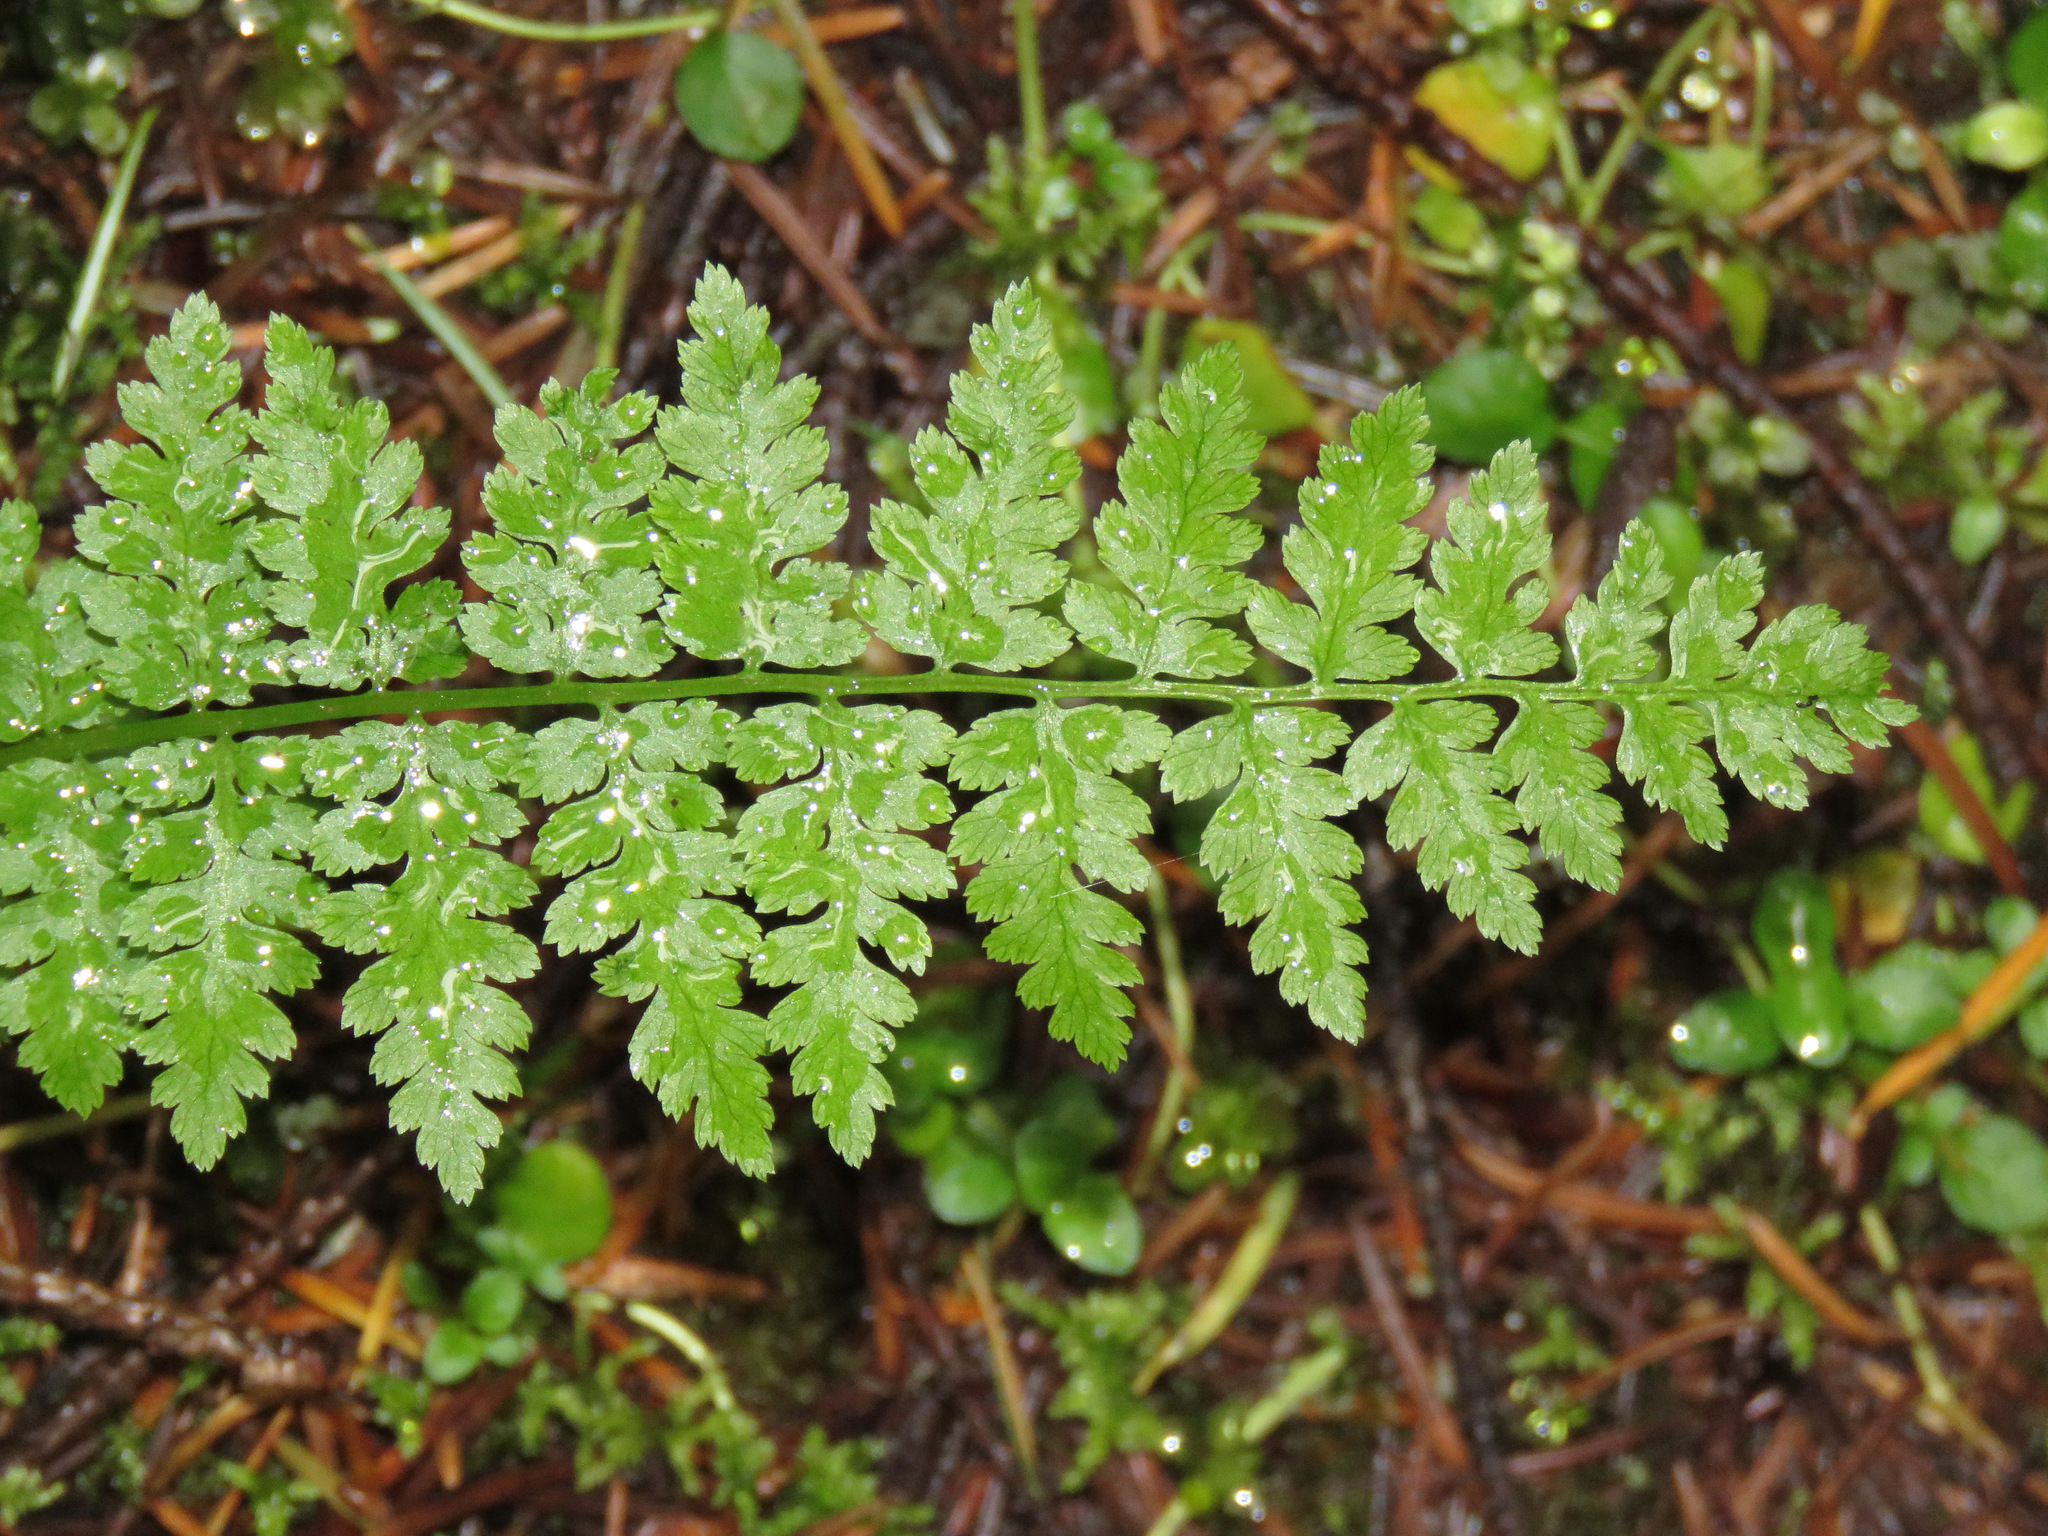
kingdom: Plantae
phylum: Tracheophyta
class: Polypodiopsida
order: Polypodiales
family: Athyriaceae
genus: Athyrium
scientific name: Athyrium filix-femina
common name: Lady fern
